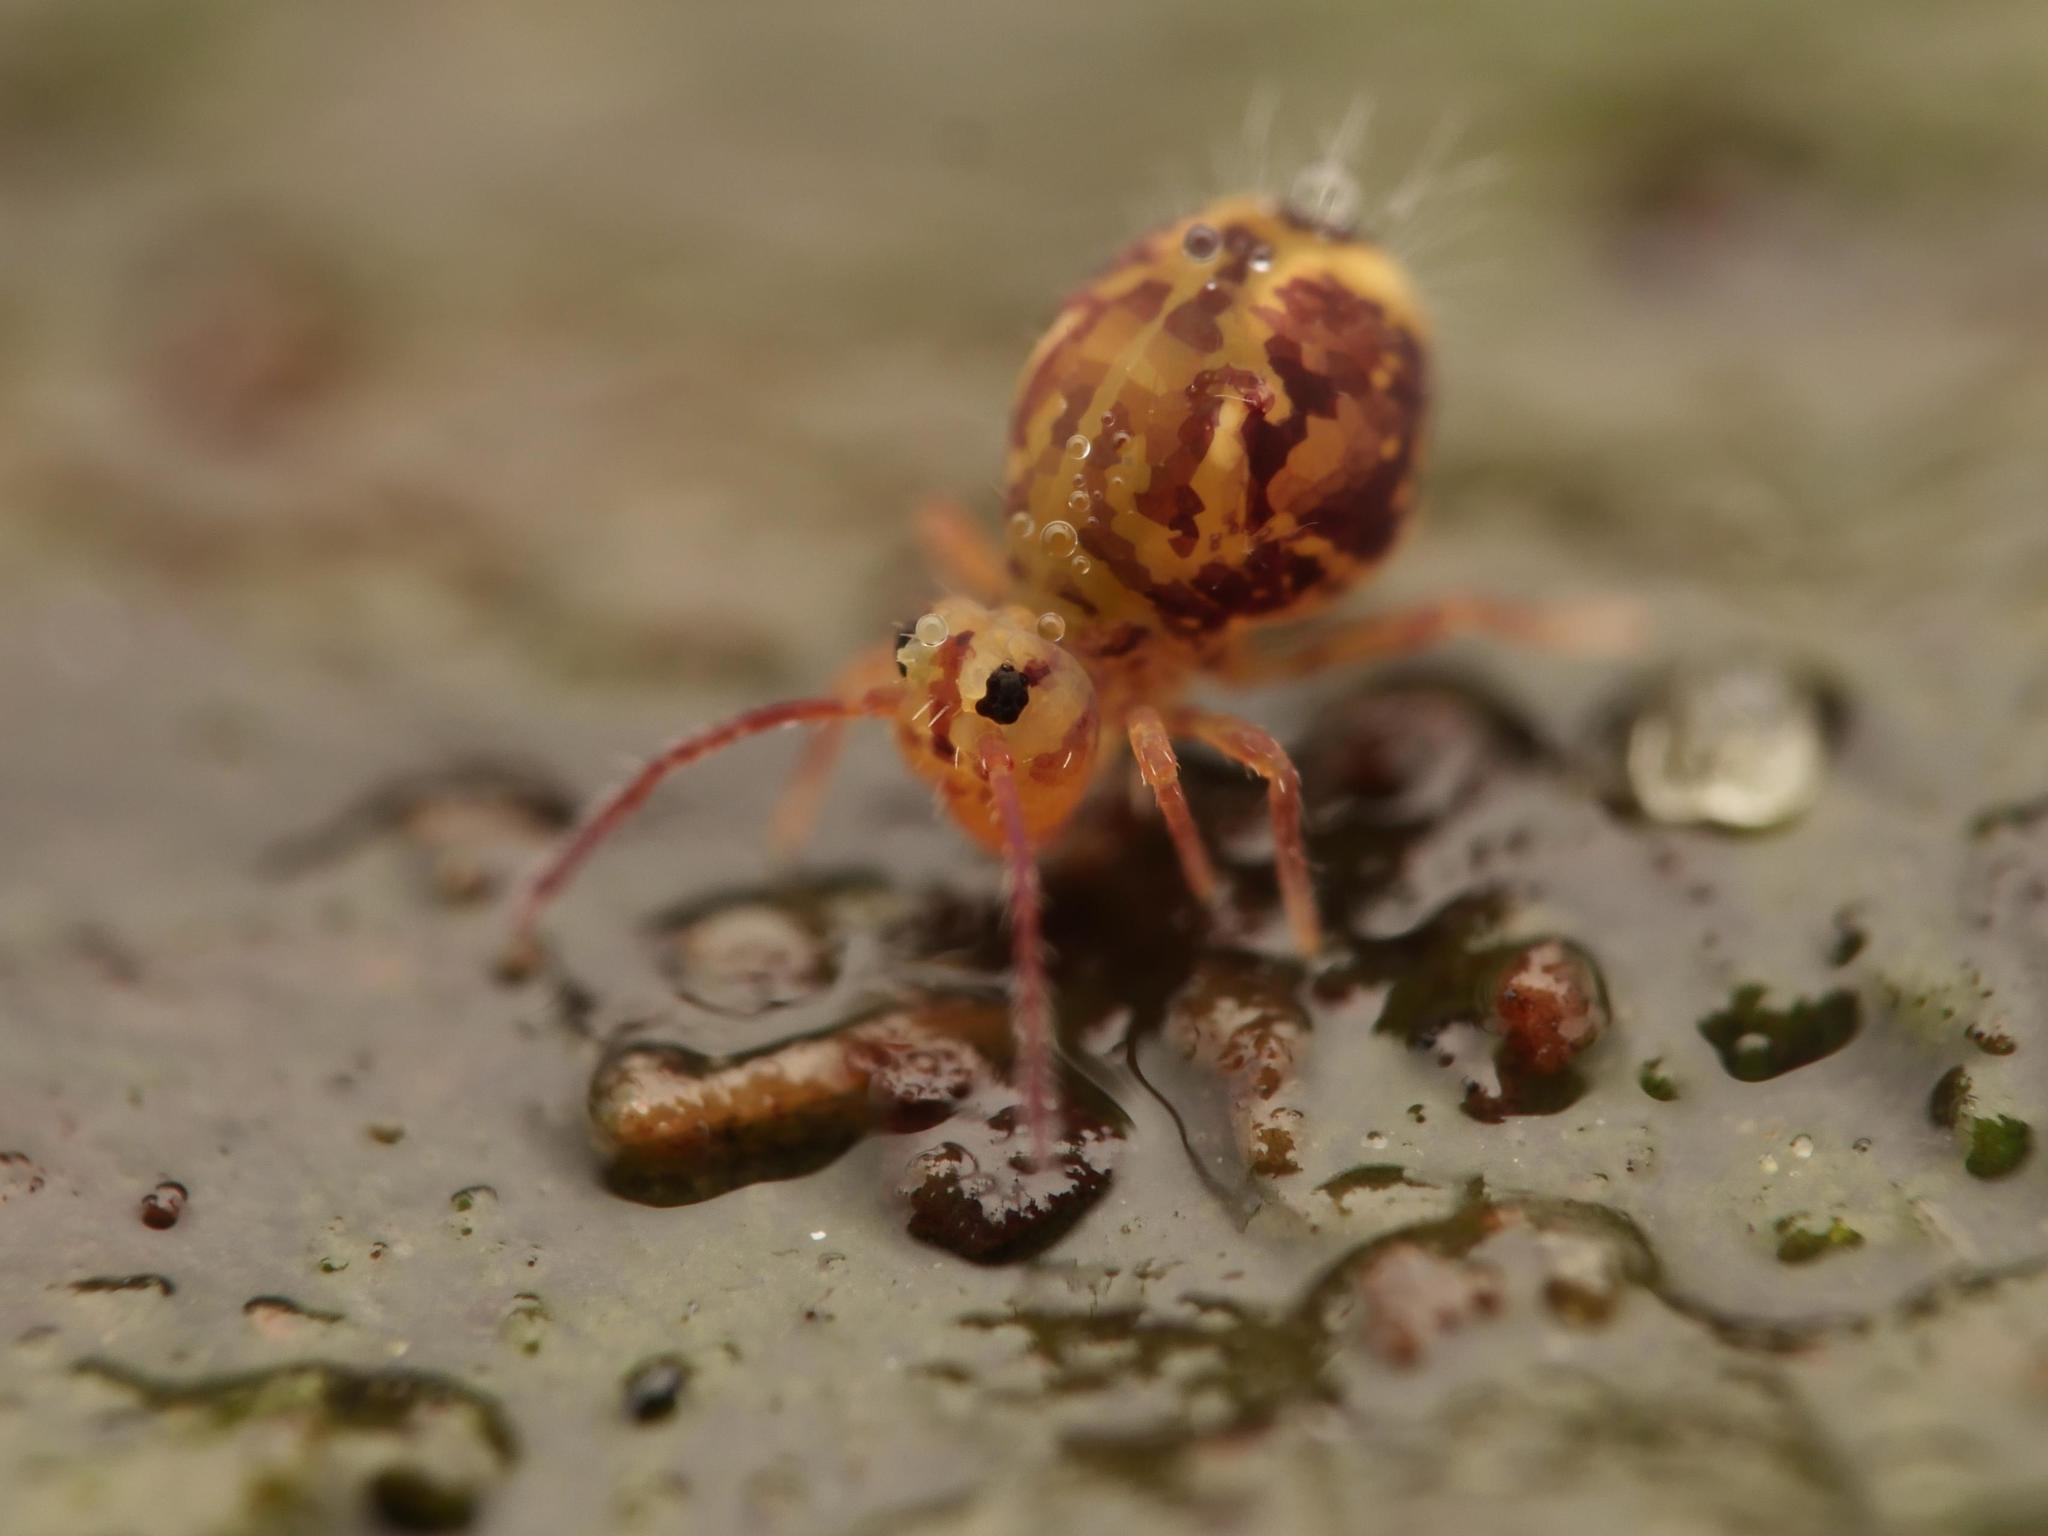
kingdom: Animalia
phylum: Arthropoda
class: Collembola
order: Symphypleona
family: Dicyrtomidae
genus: Dicyrtomina
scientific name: Dicyrtomina ornata
